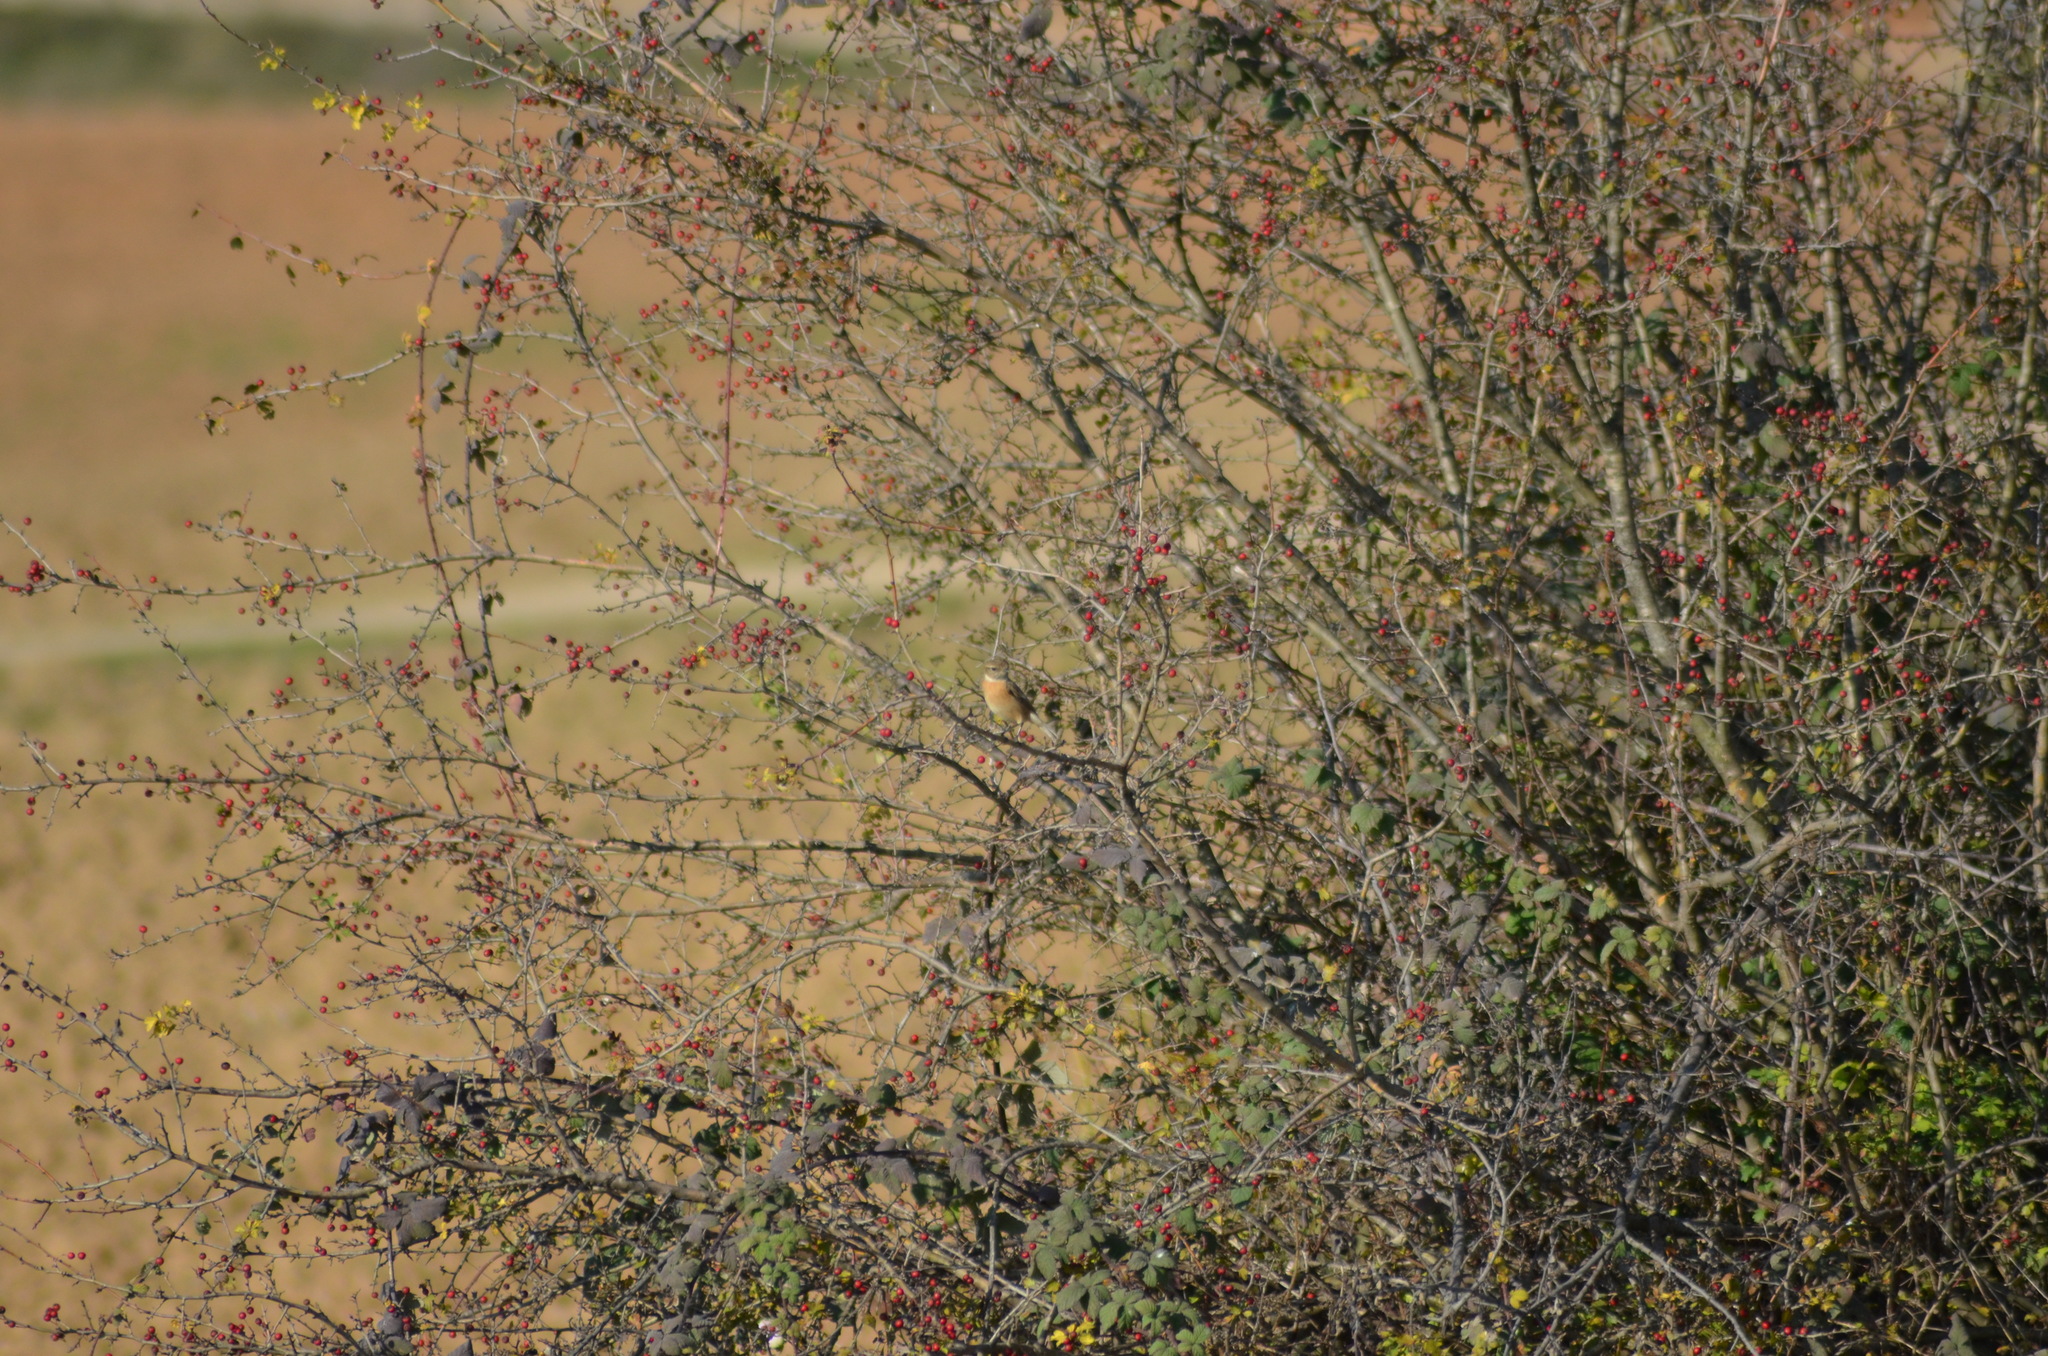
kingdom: Animalia
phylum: Chordata
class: Aves
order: Passeriformes
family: Muscicapidae
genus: Saxicola
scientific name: Saxicola rubicola
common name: European stonechat
